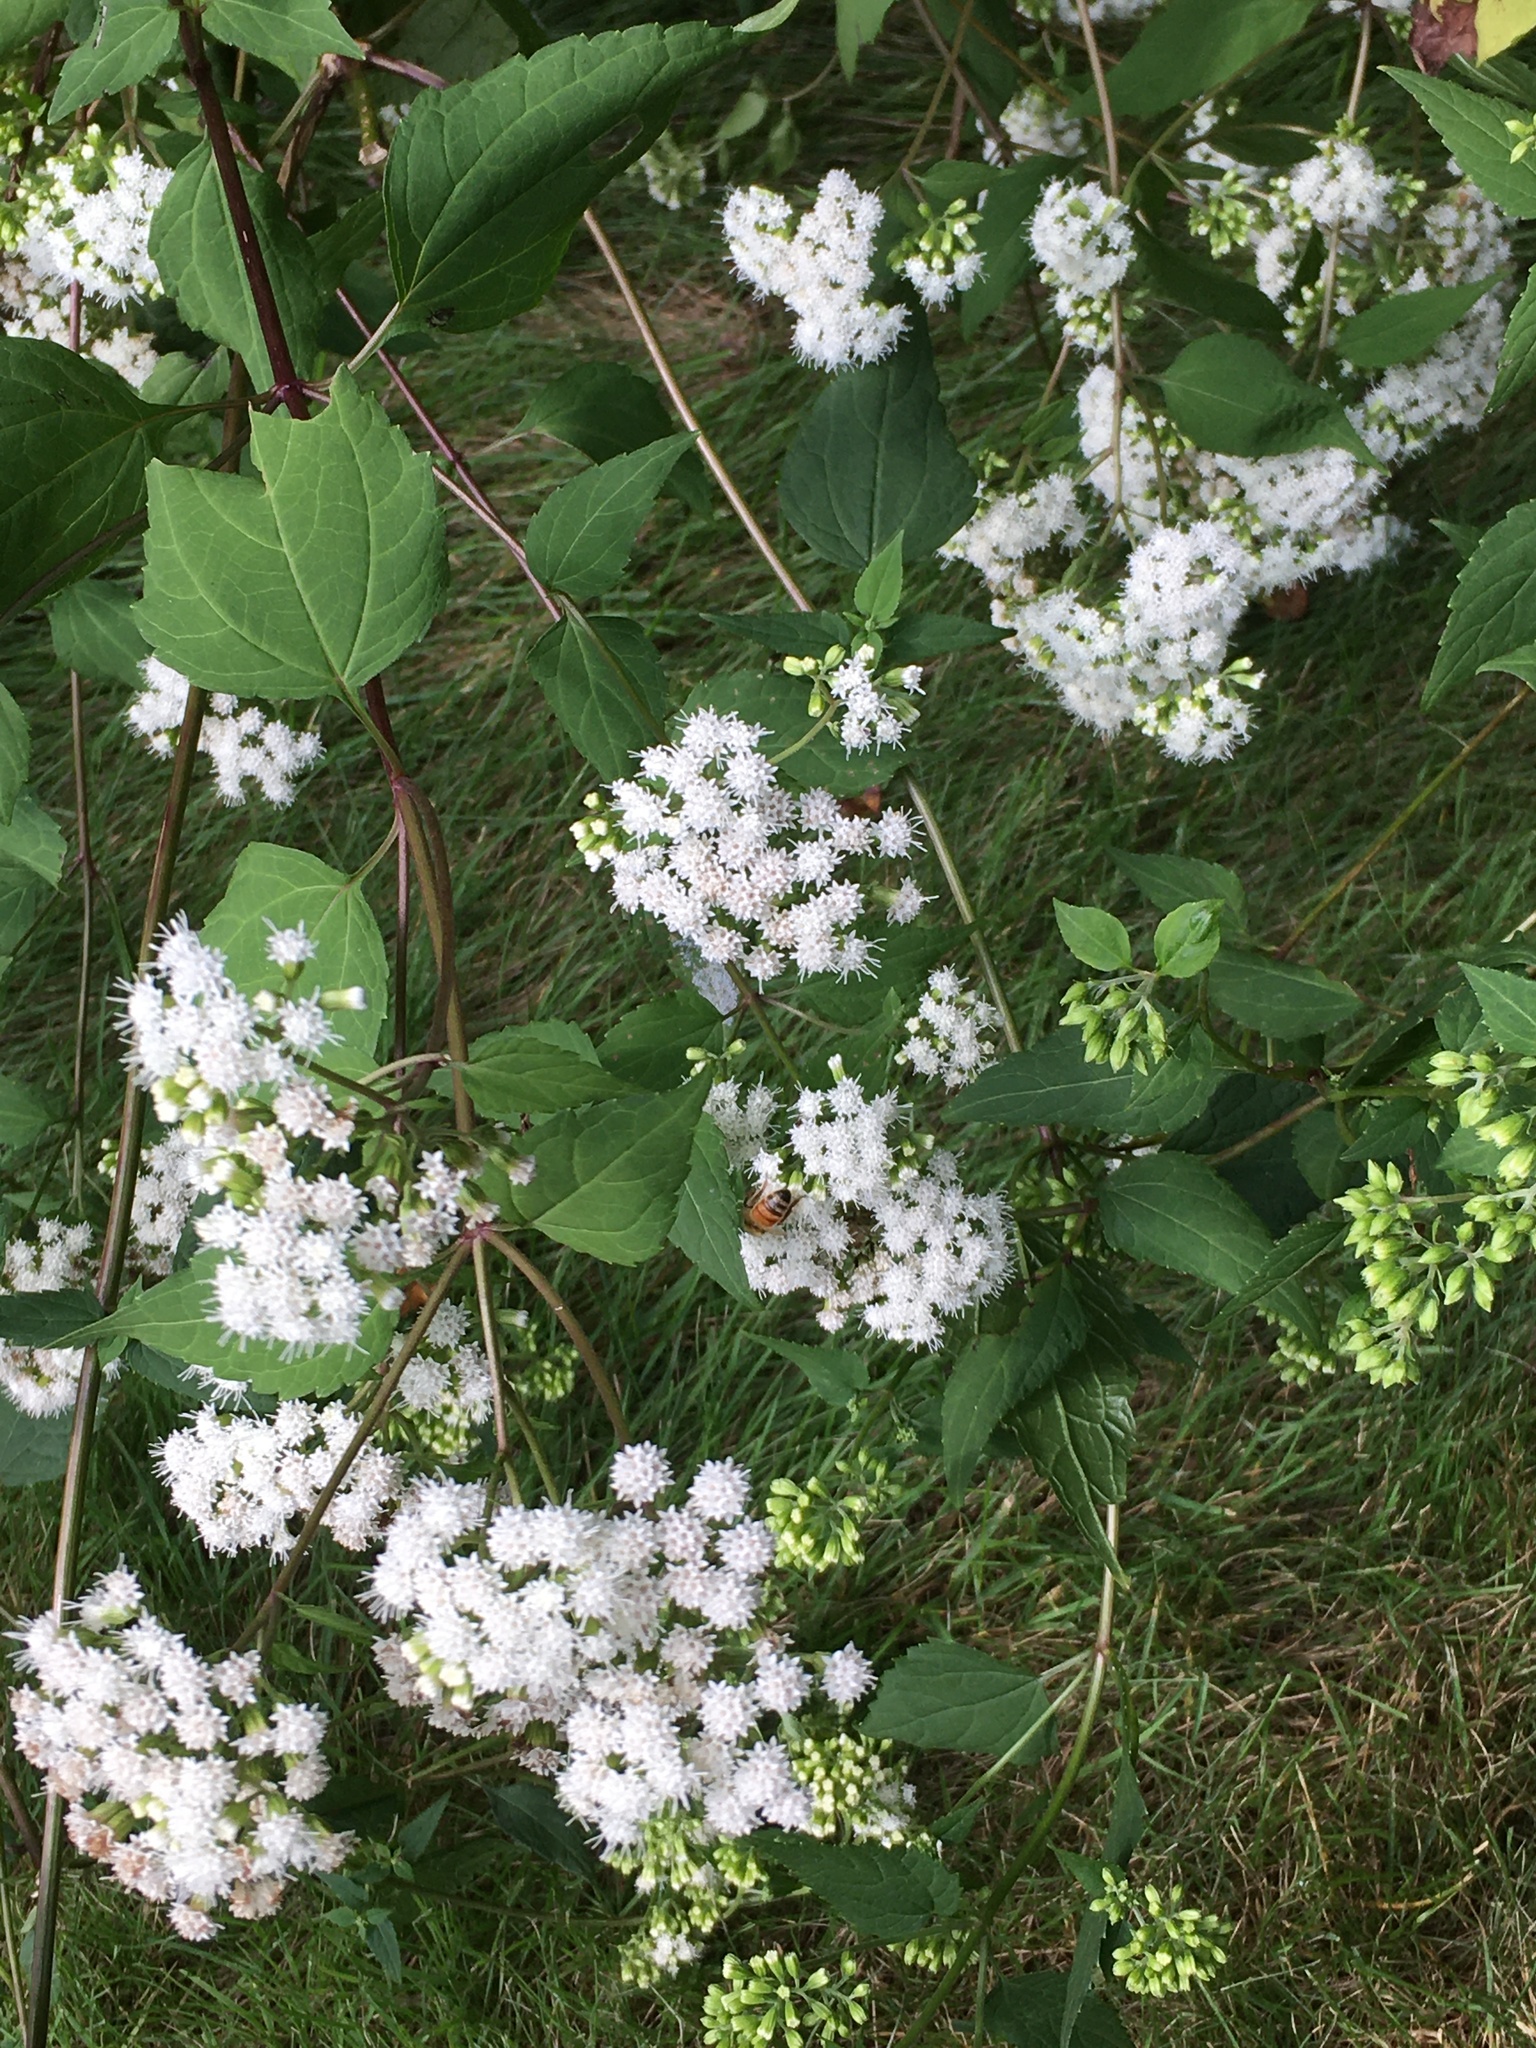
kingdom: Plantae
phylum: Tracheophyta
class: Magnoliopsida
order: Asterales
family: Asteraceae
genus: Ageratina
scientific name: Ageratina altissima
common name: White snakeroot
